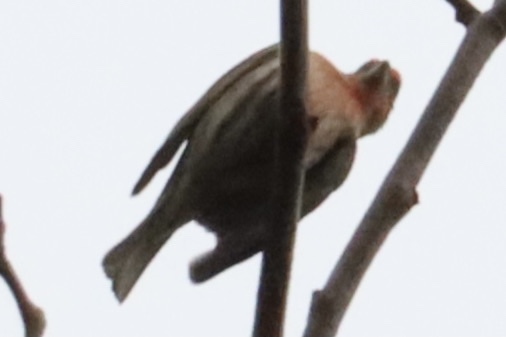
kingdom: Animalia
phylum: Chordata
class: Aves
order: Passeriformes
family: Fringillidae
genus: Haemorhous
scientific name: Haemorhous mexicanus
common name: House finch
